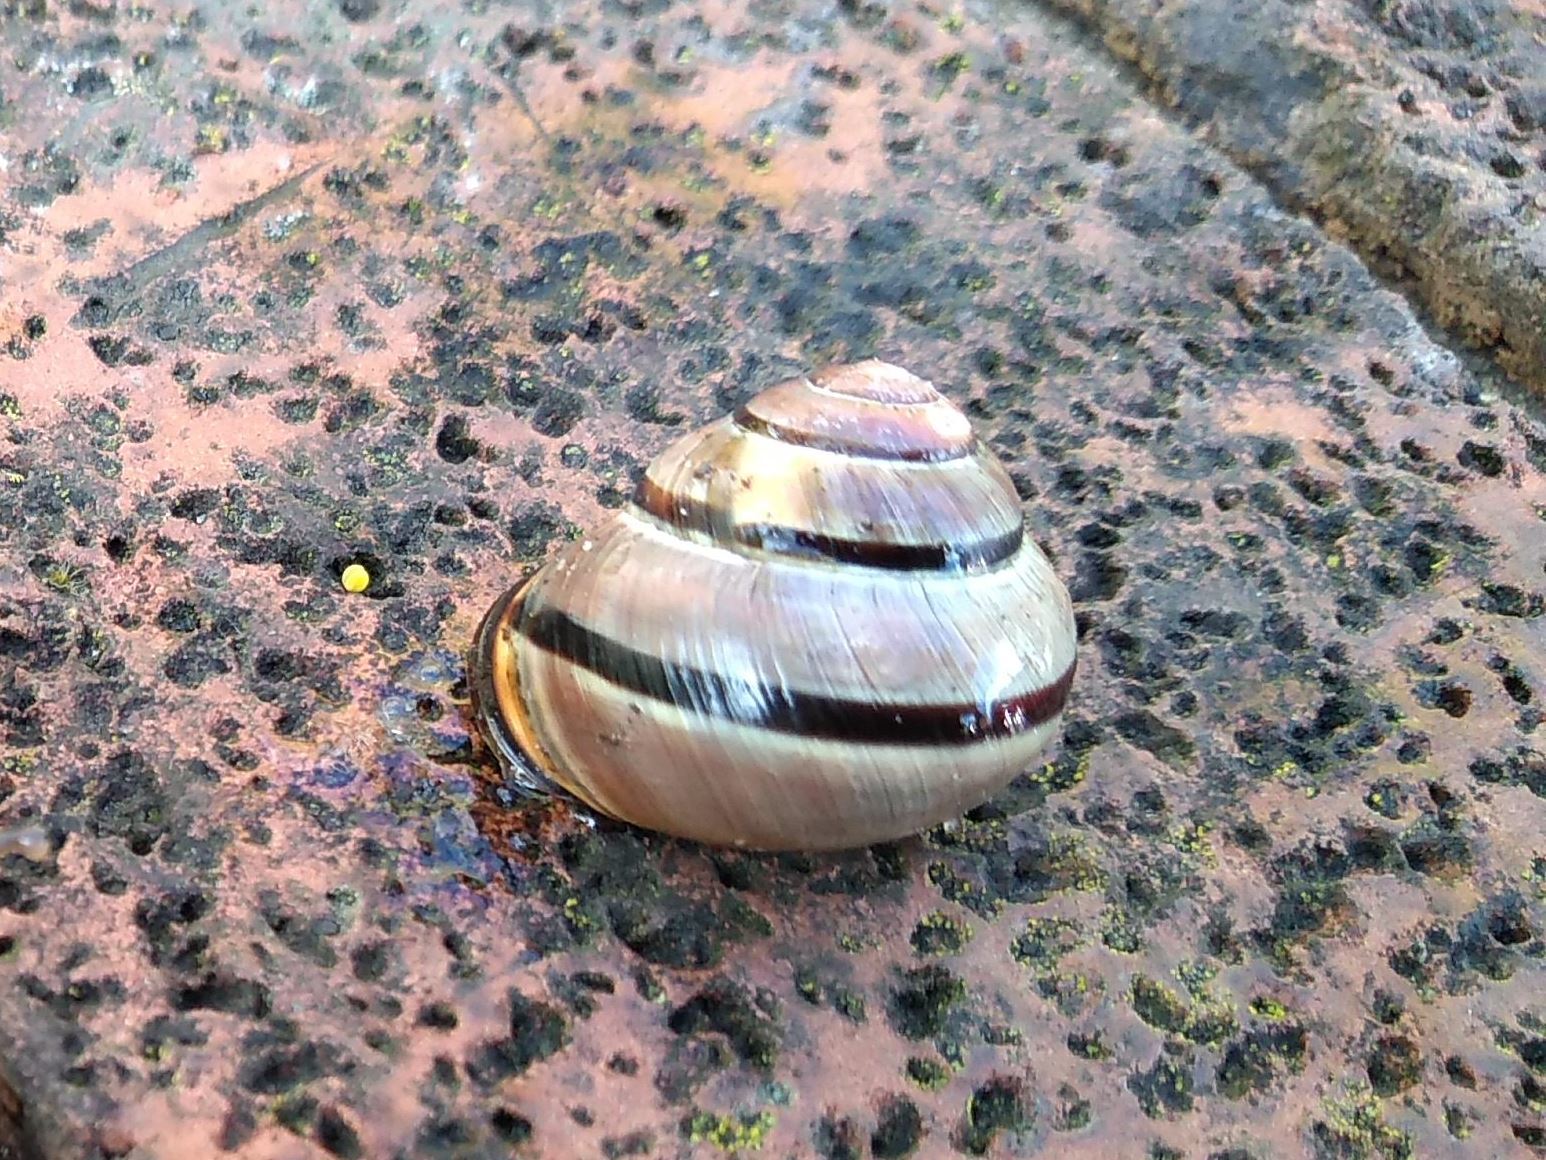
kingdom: Animalia
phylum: Mollusca
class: Gastropoda
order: Stylommatophora
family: Helicidae
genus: Cepaea
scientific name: Cepaea nemoralis
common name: Grovesnail
